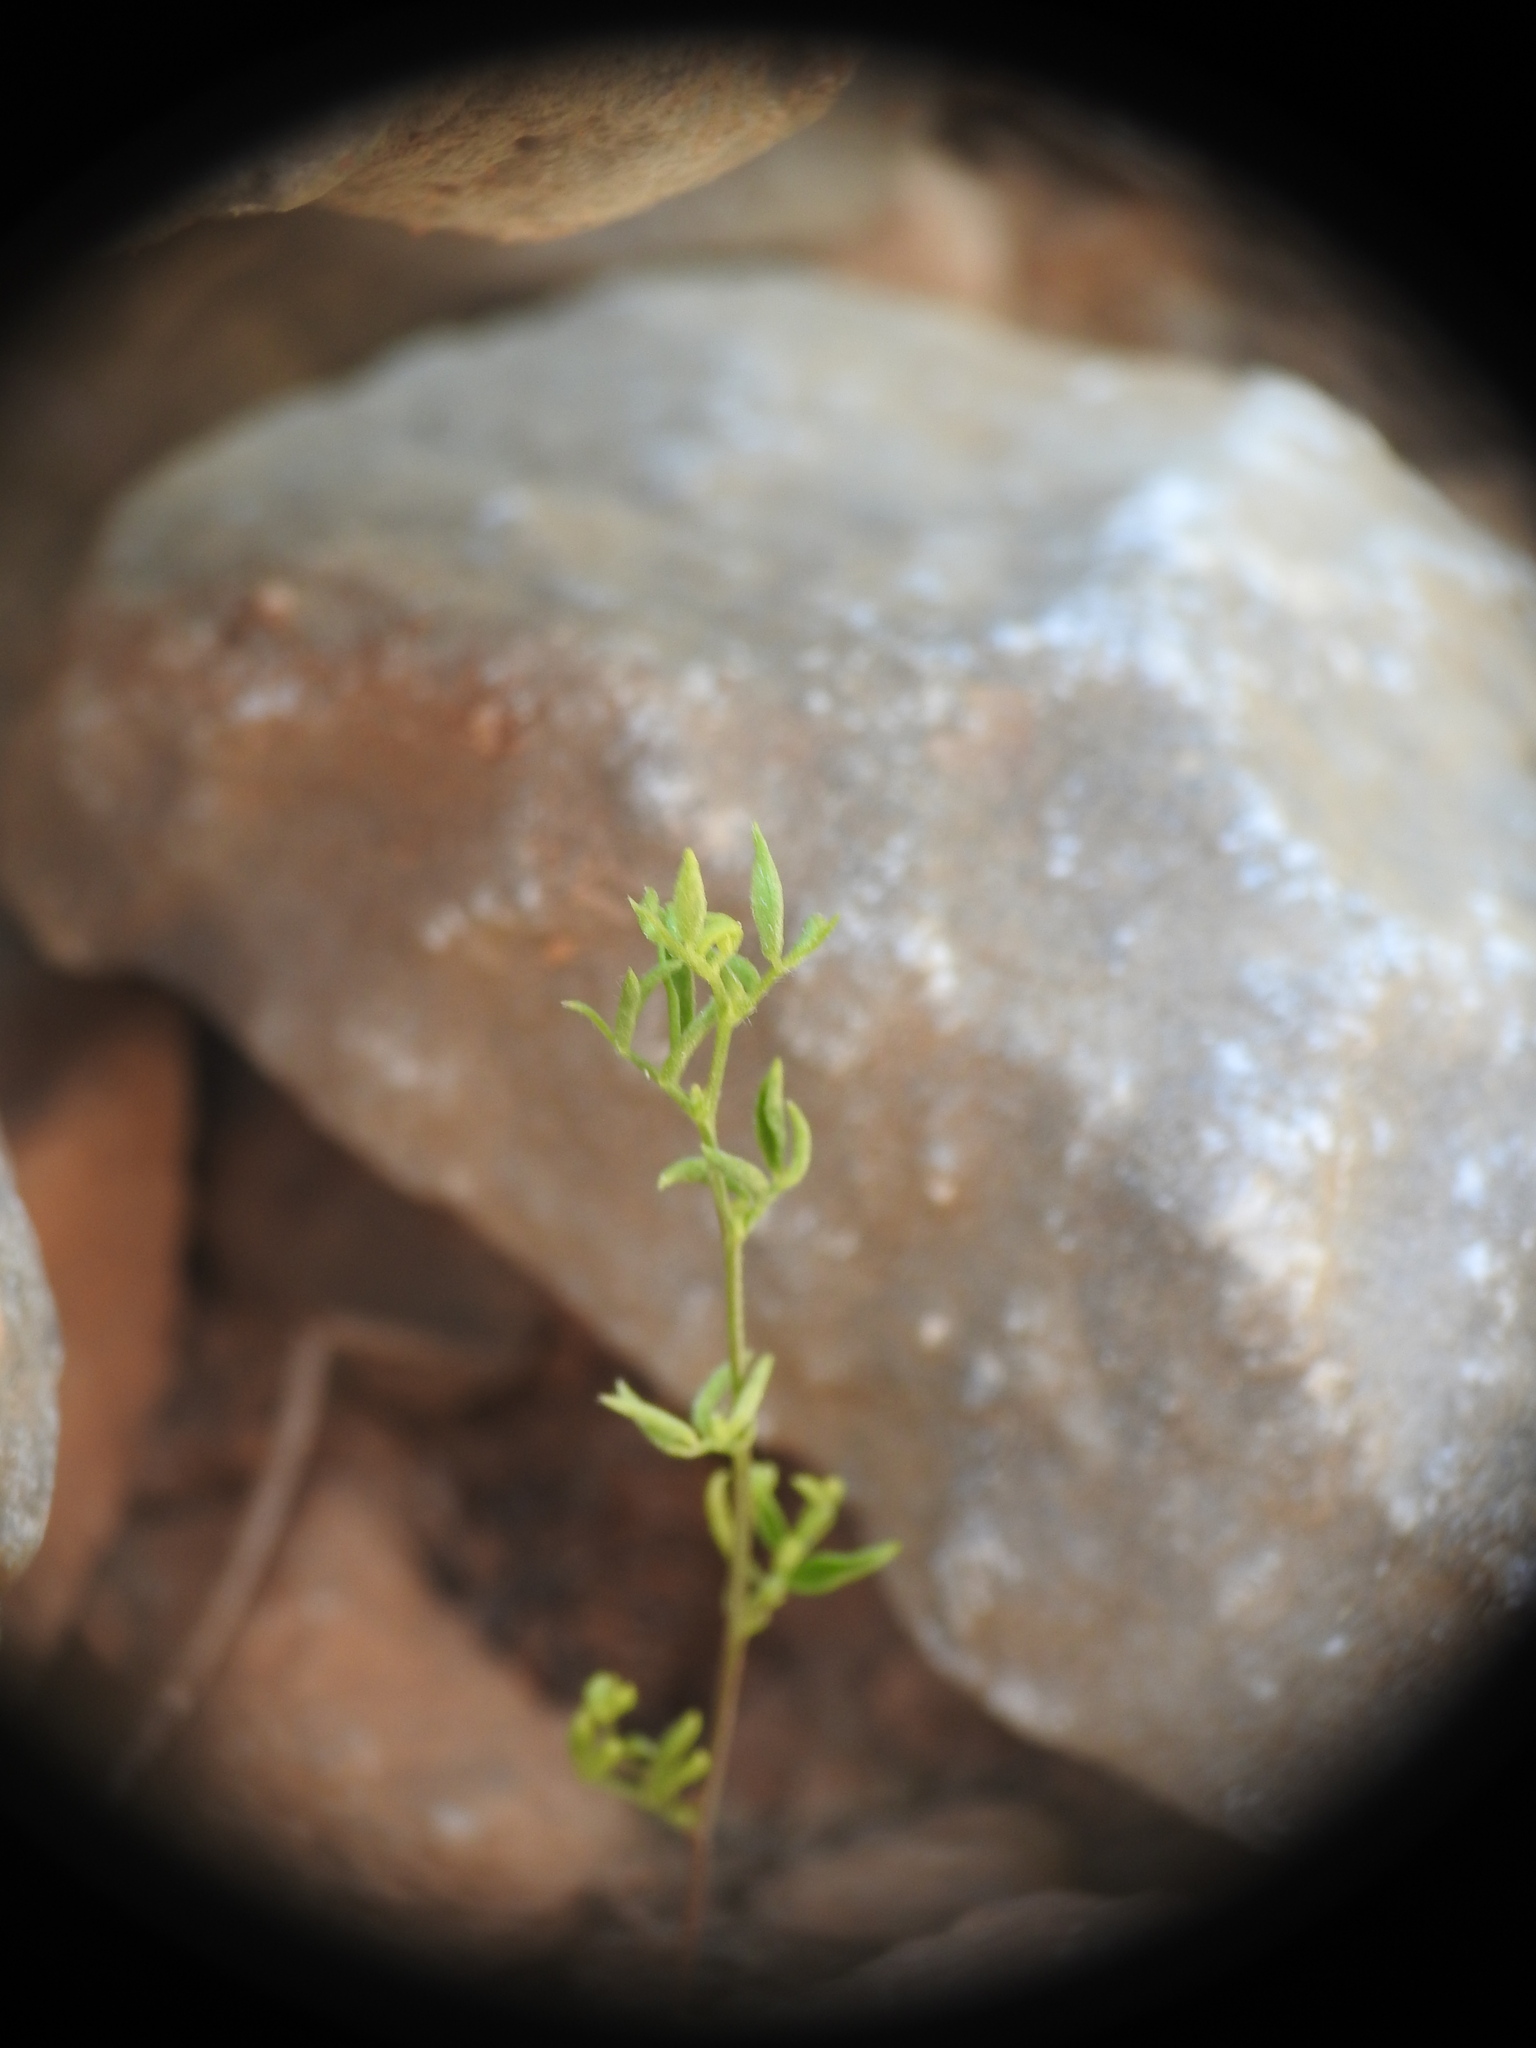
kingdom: Plantae
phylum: Tracheophyta
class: Magnoliopsida
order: Ericales
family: Primulaceae
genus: Lysimachia
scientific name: Lysimachia linum-stellatum
